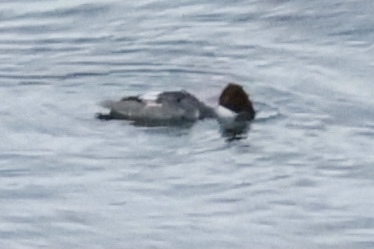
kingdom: Animalia
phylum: Chordata
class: Aves
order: Anseriformes
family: Anatidae
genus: Mergus
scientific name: Mergus merganser
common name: Common merganser
